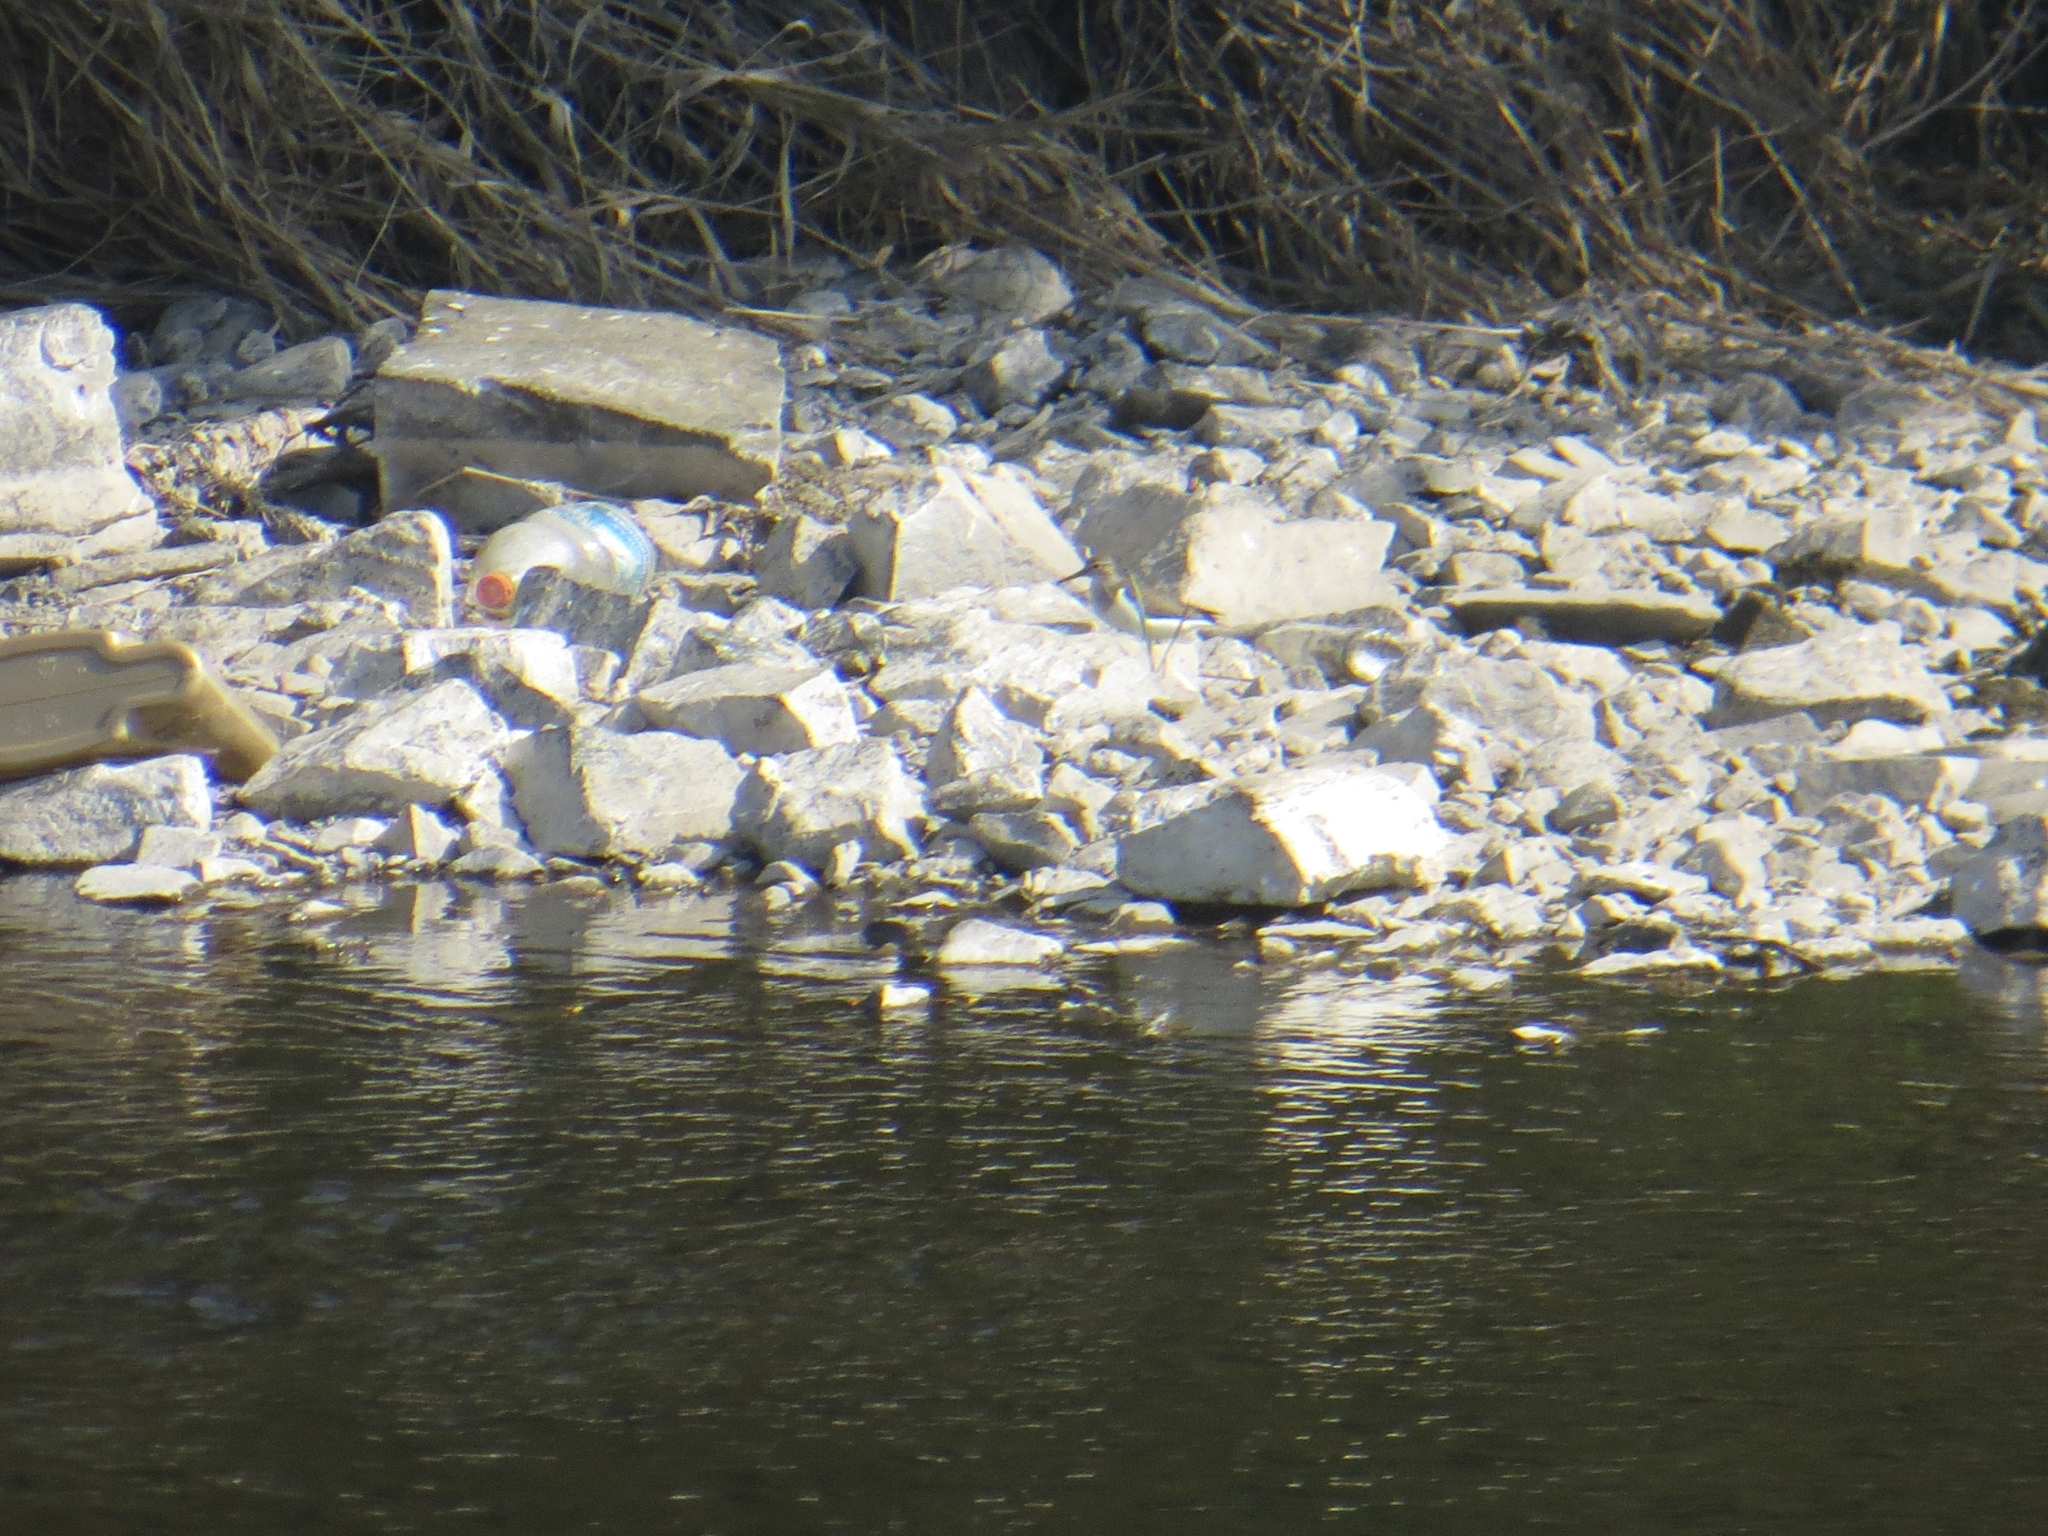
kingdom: Animalia
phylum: Chordata
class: Aves
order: Charadriiformes
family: Scolopacidae
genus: Actitis
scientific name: Actitis hypoleucos
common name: Common sandpiper
